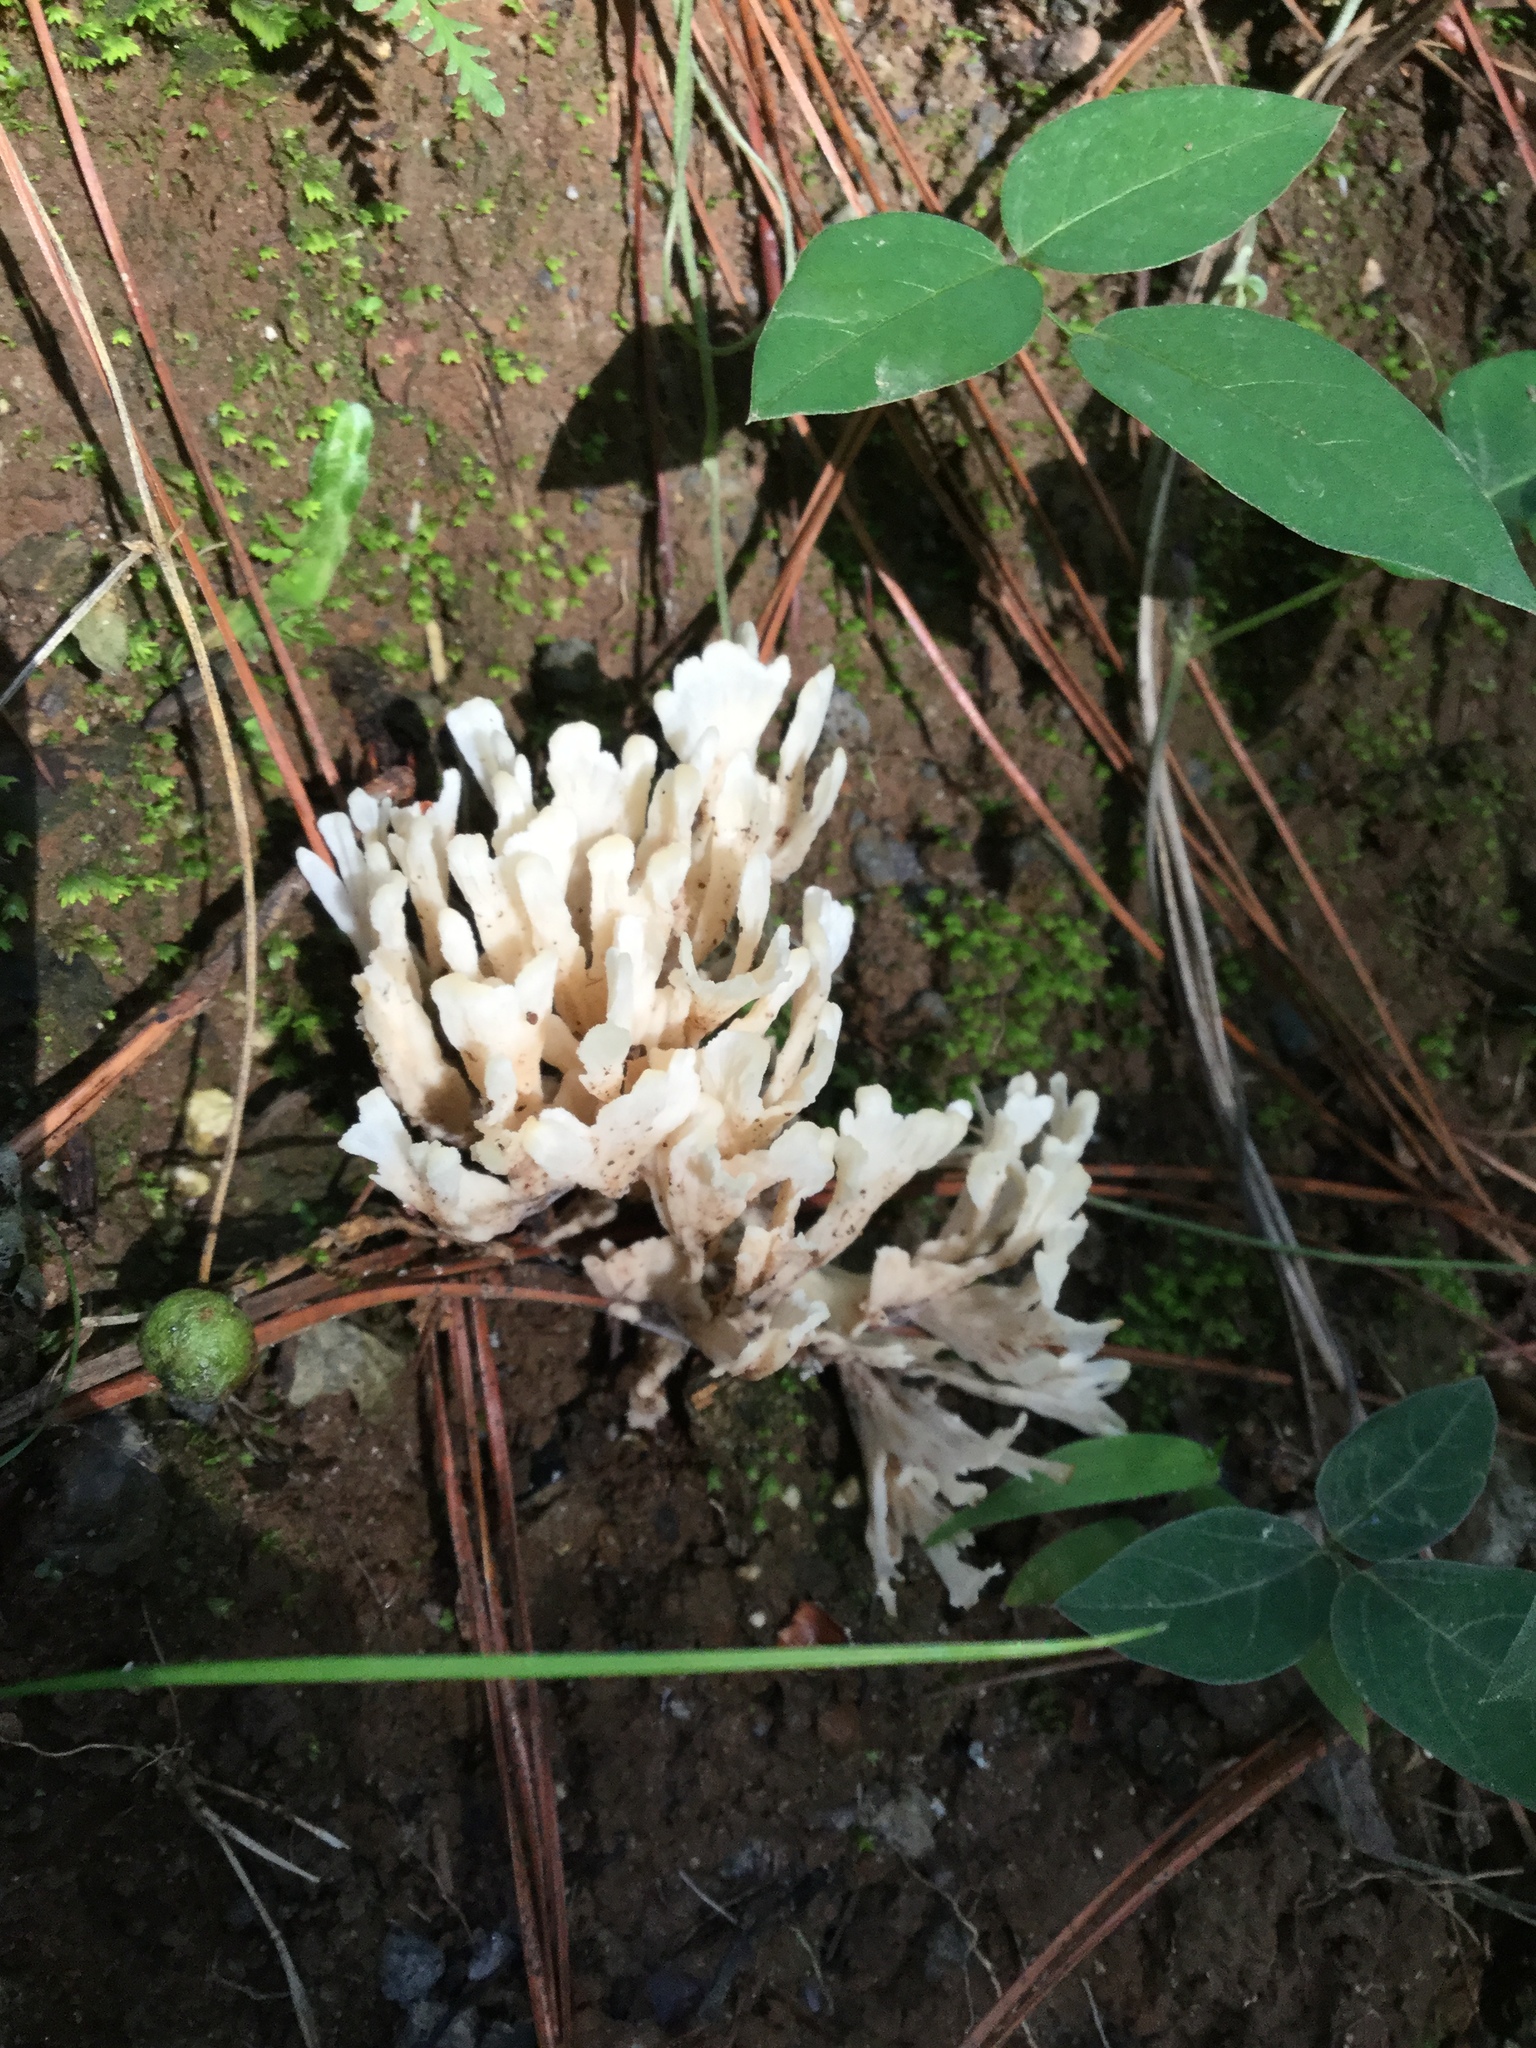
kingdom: Fungi
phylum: Basidiomycota
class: Agaricomycetes
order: Sebacinales
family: Sebacinaceae
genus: Sebacina
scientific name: Sebacina schweinitzii
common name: Jellied false coral fungus
